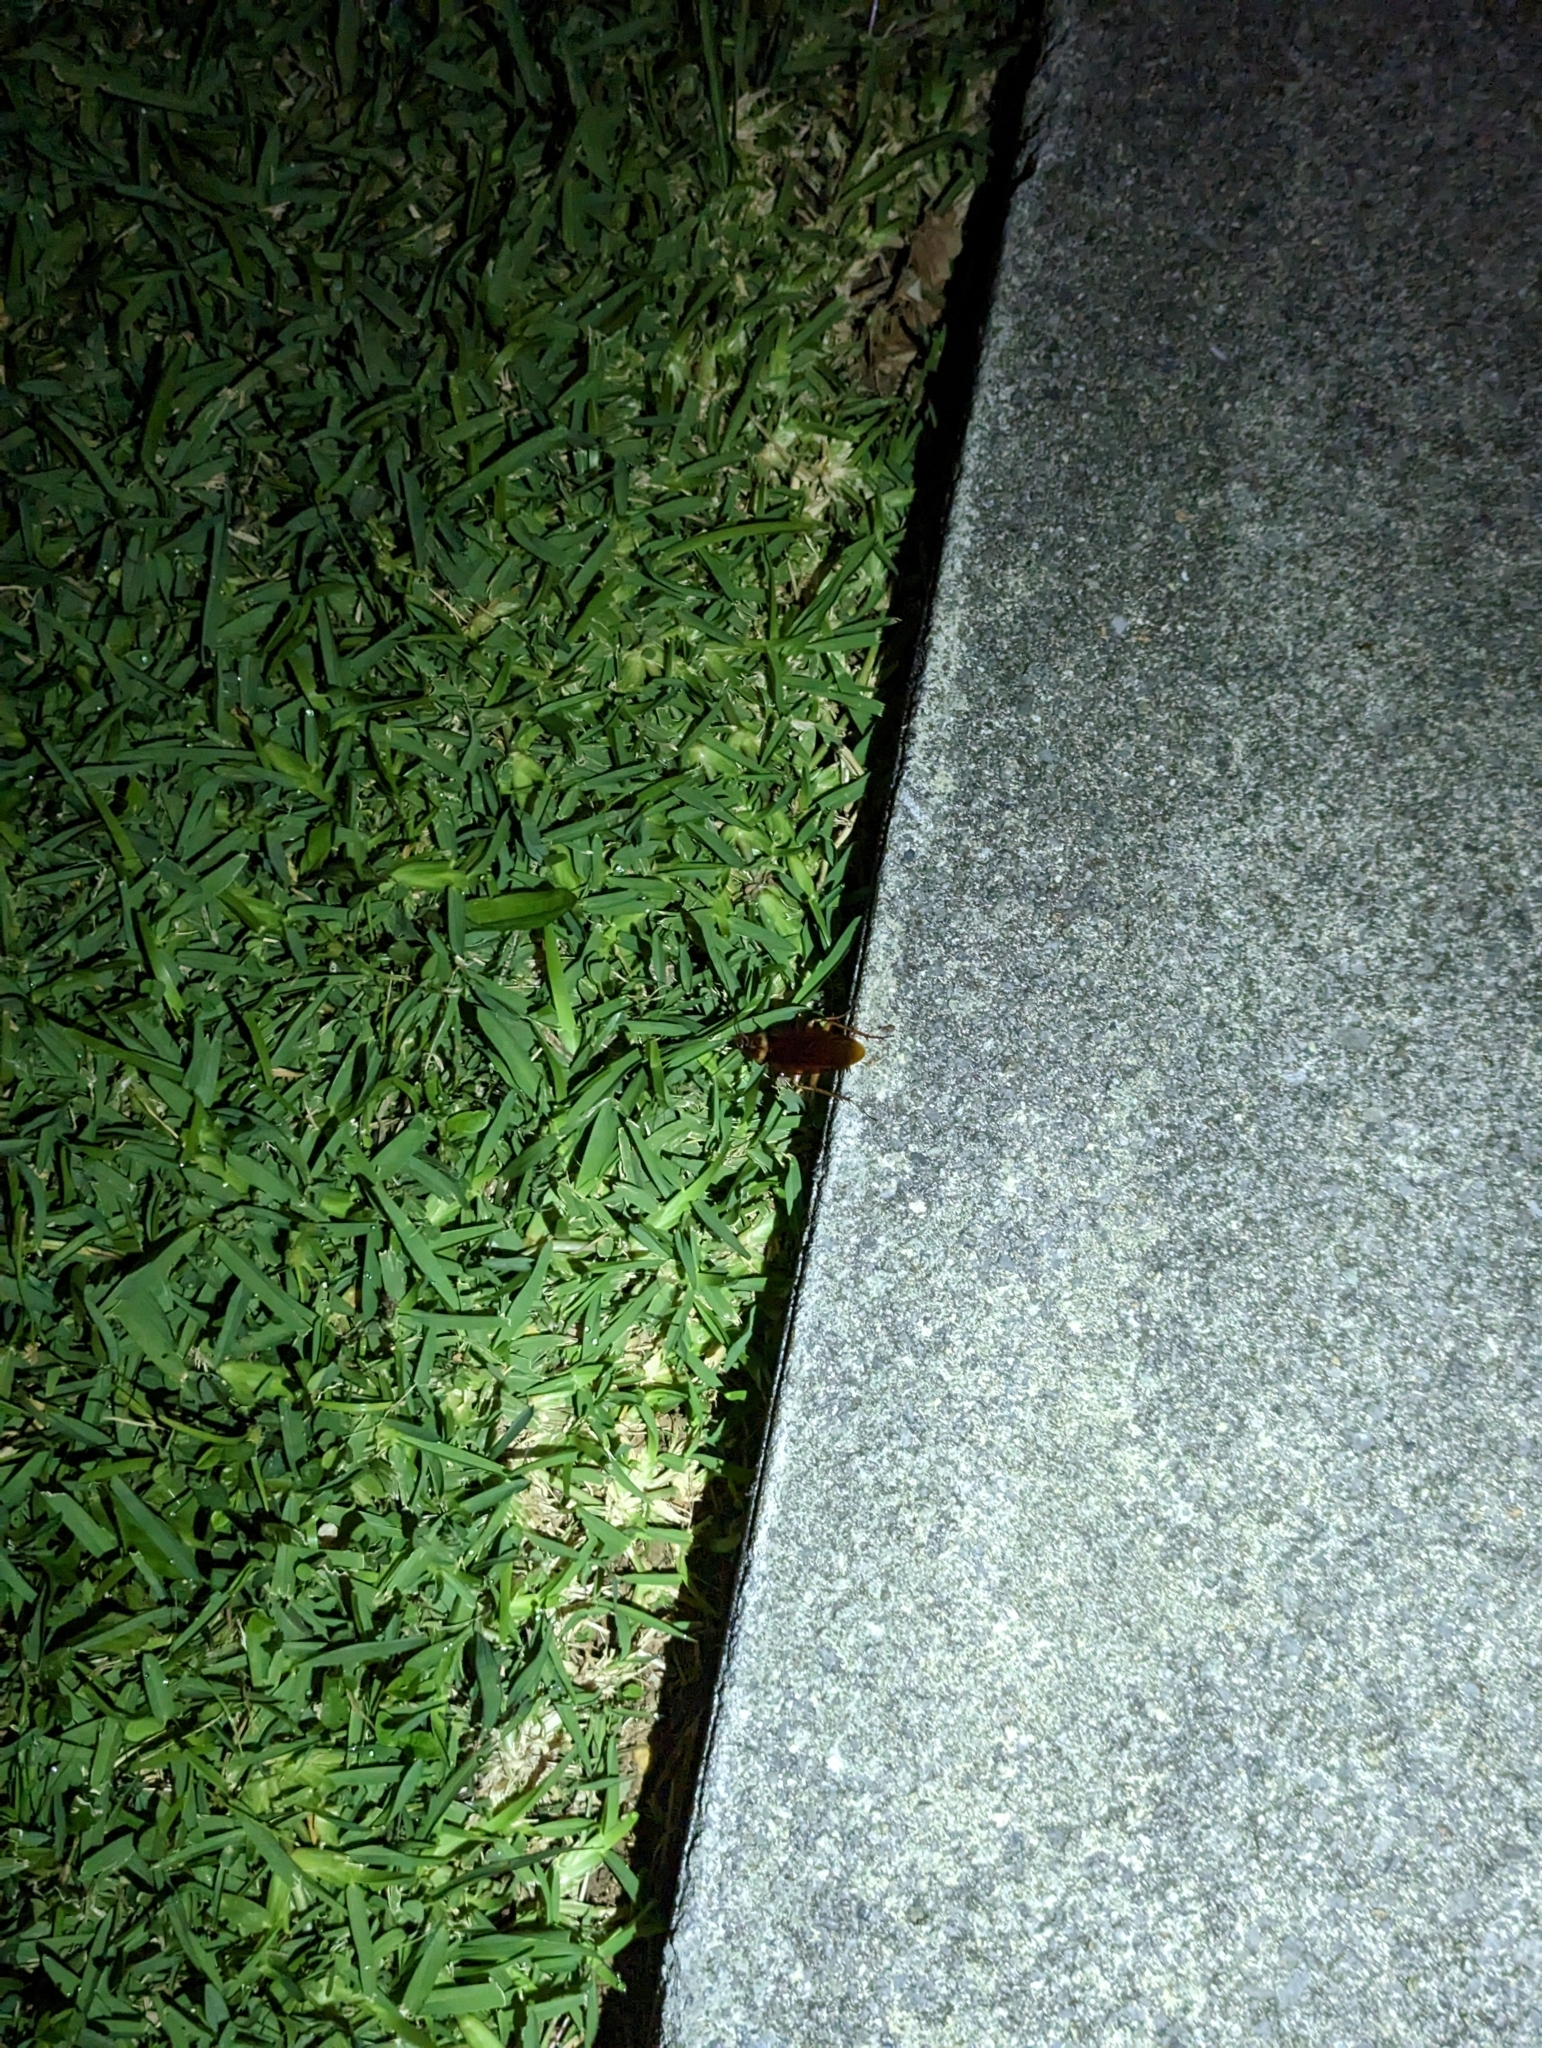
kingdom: Animalia
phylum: Arthropoda
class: Insecta
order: Blattodea
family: Blattidae
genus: Periplaneta
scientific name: Periplaneta americana
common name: American cockroach
